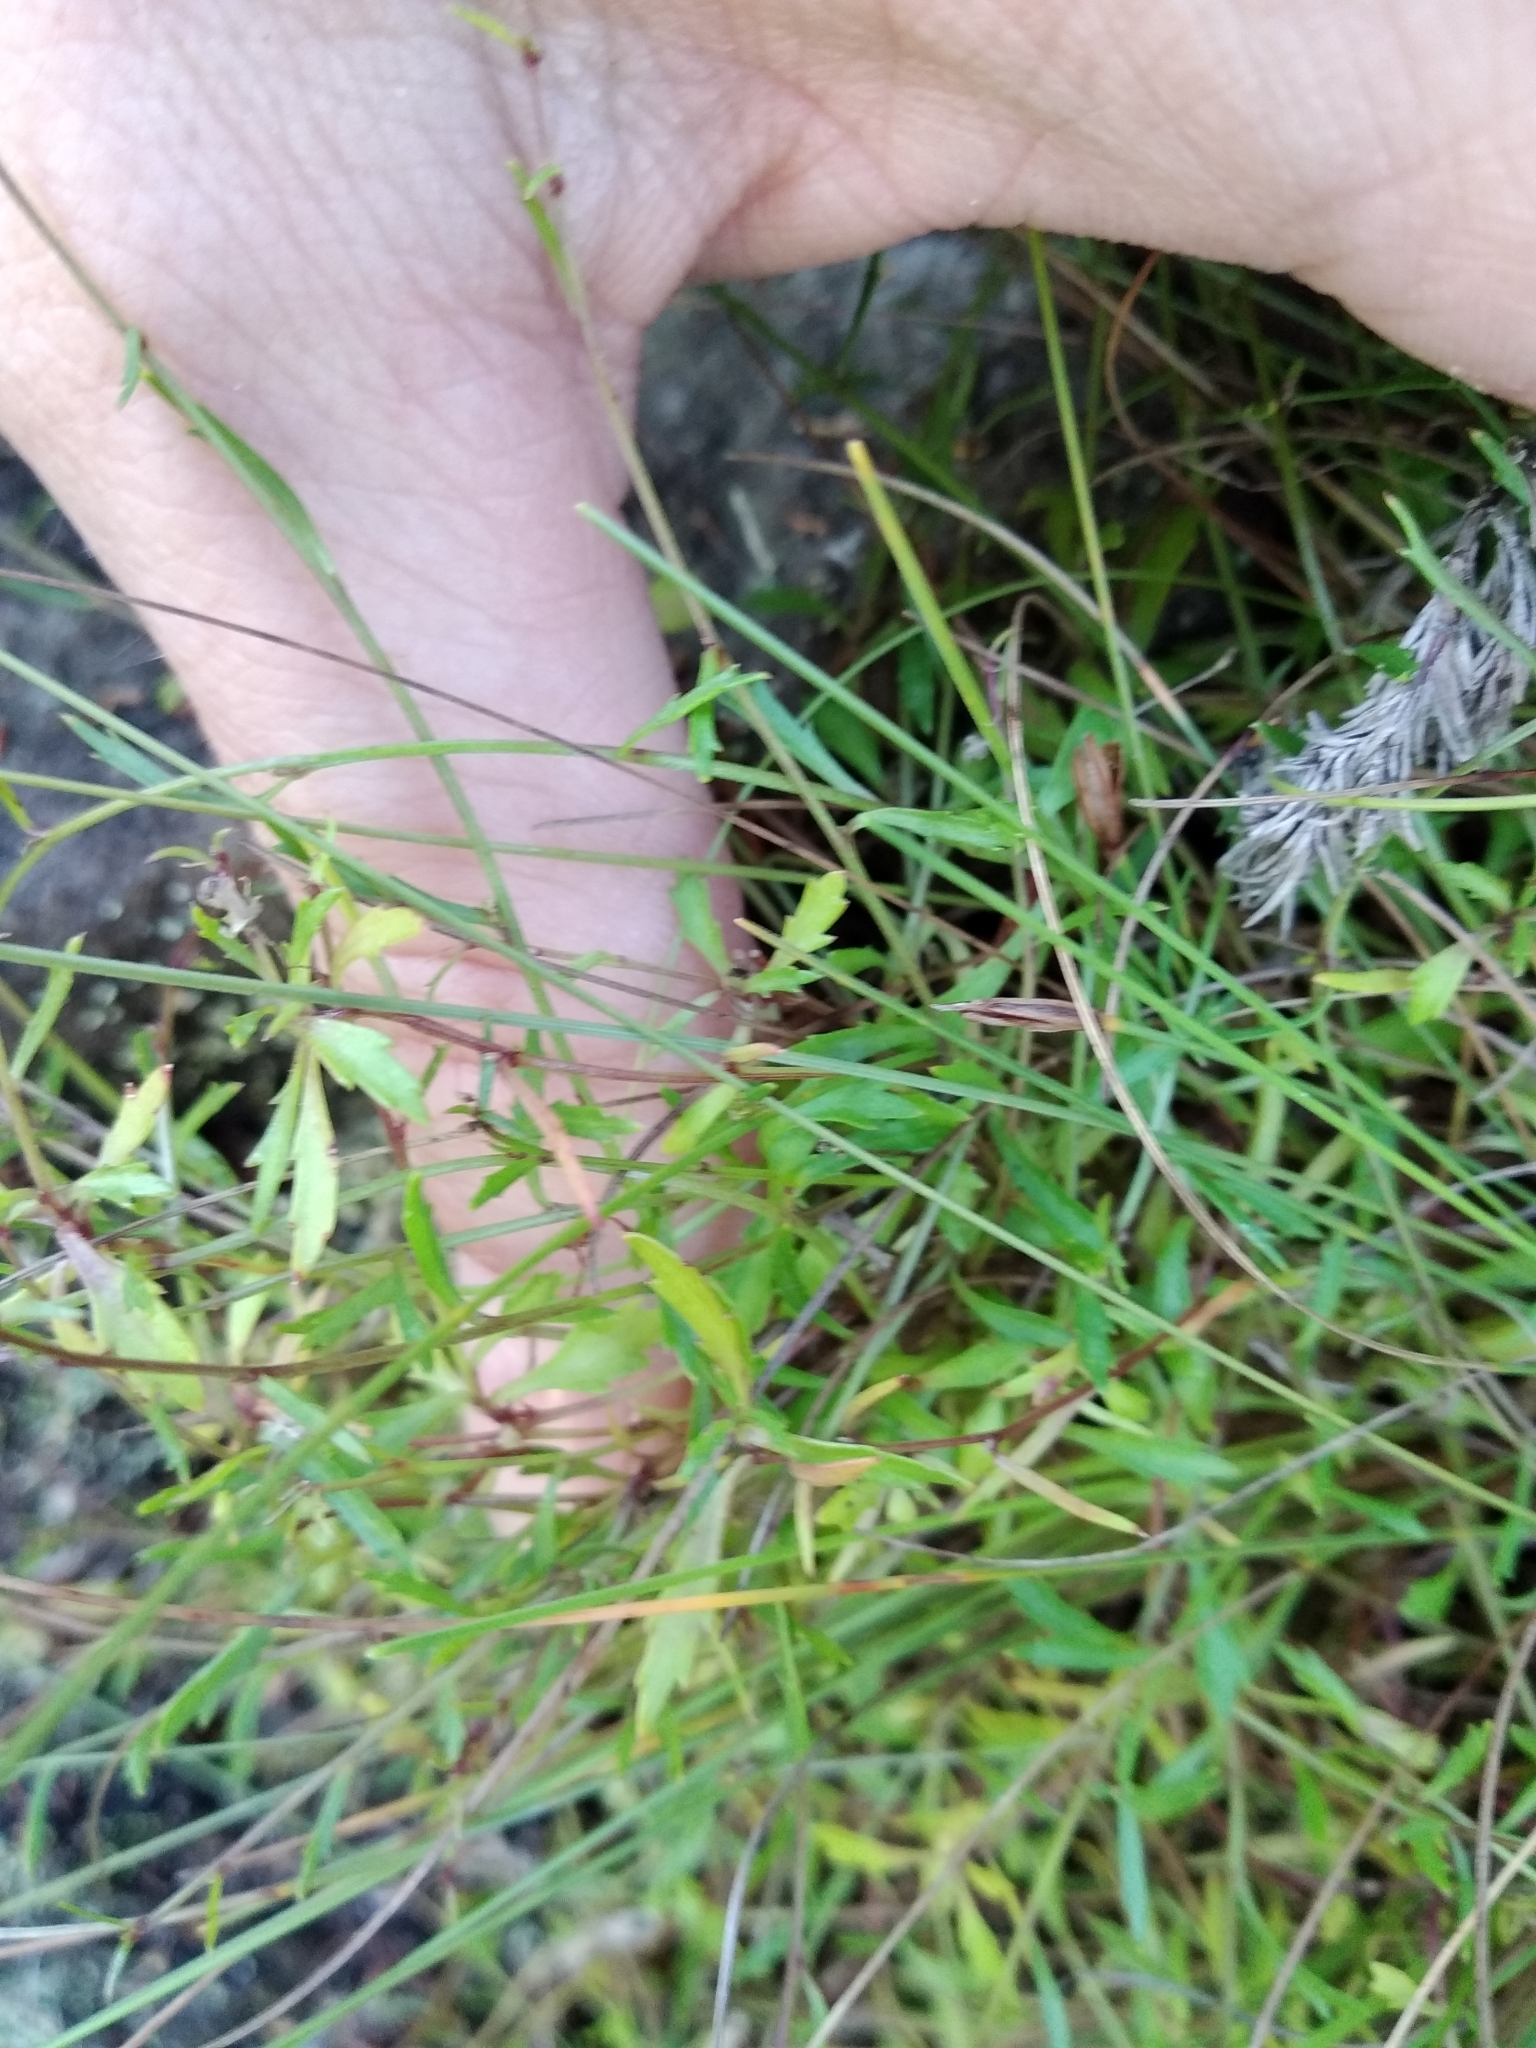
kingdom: Plantae
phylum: Tracheophyta
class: Magnoliopsida
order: Asterales
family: Campanulaceae
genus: Lobelia
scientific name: Lobelia eckloniana
